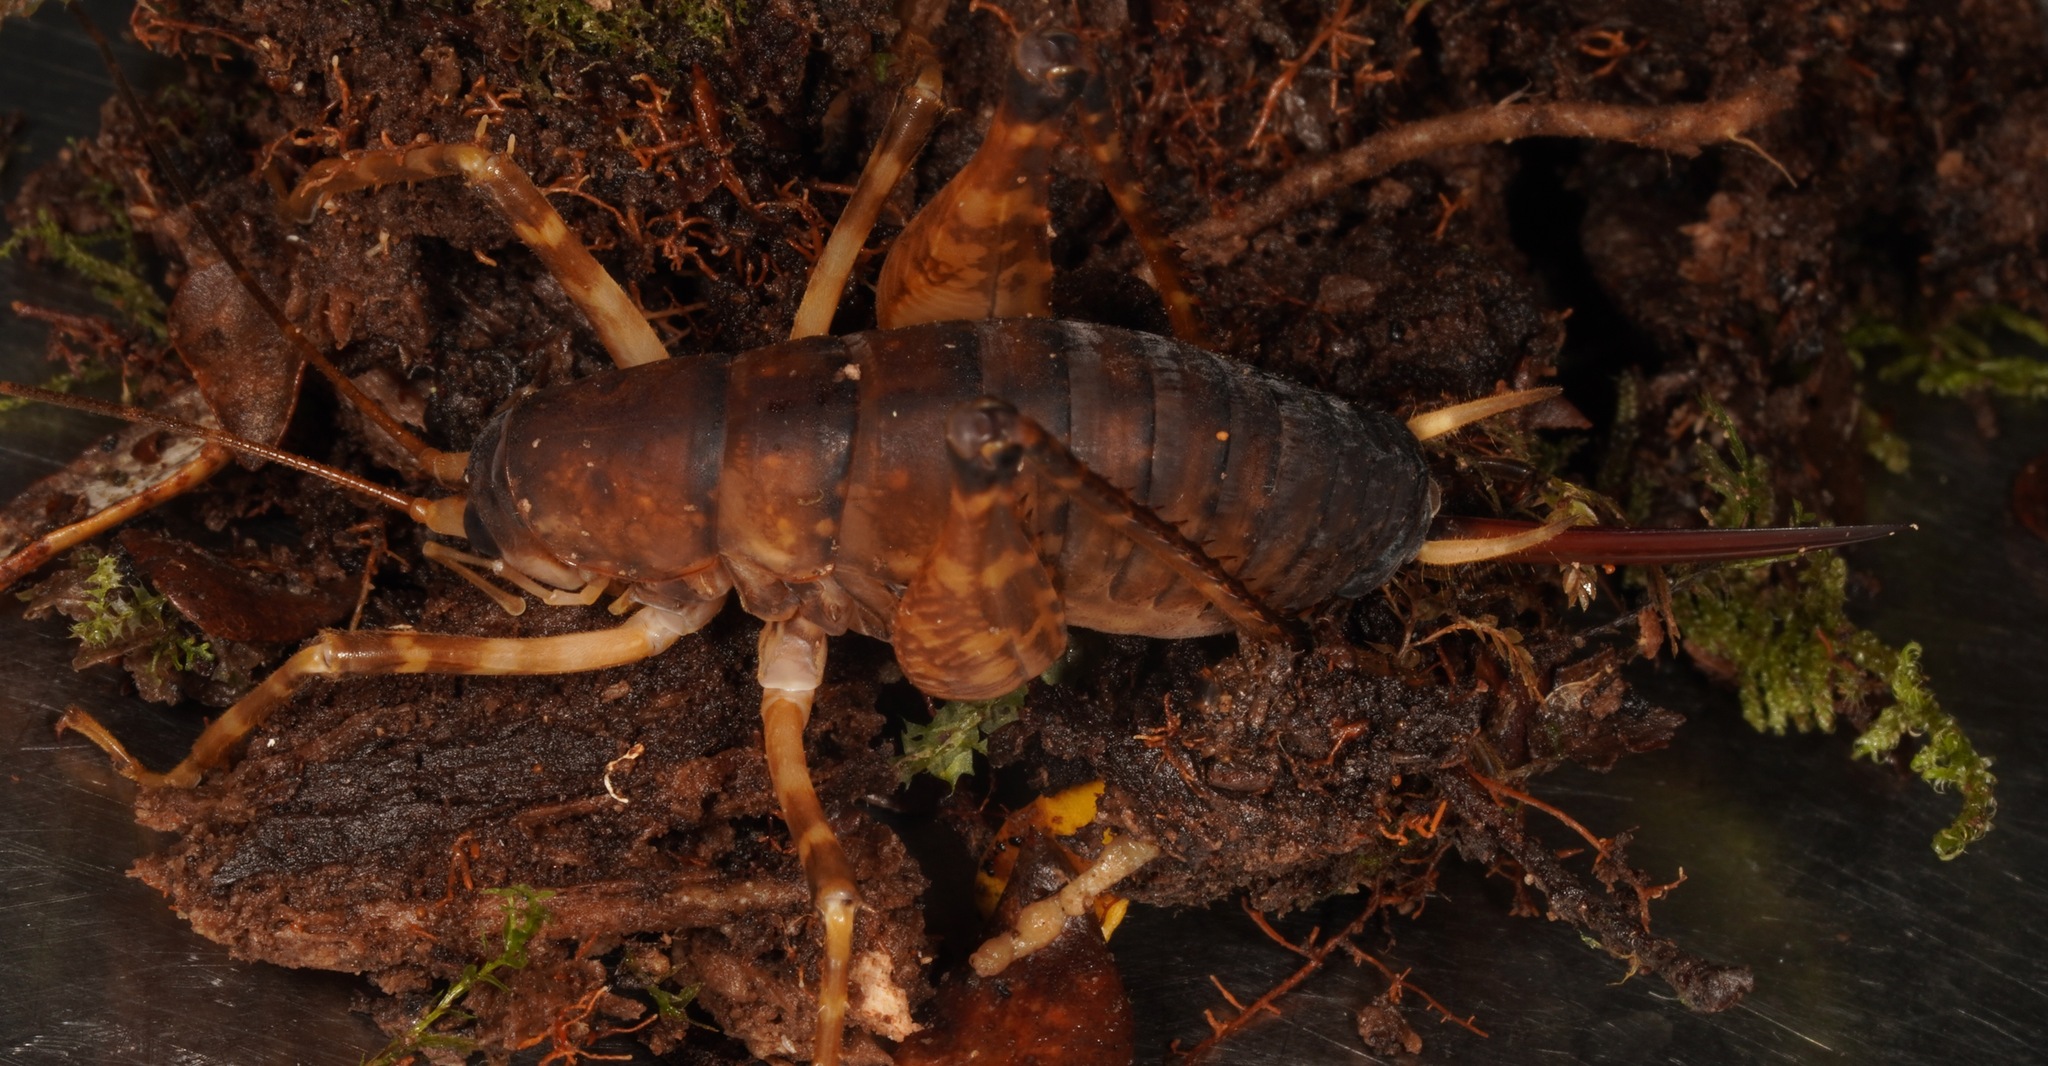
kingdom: Animalia
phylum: Arthropoda
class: Insecta
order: Orthoptera
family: Rhaphidophoridae
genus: Pachyrhamma
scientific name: Pachyrhamma longicauda
